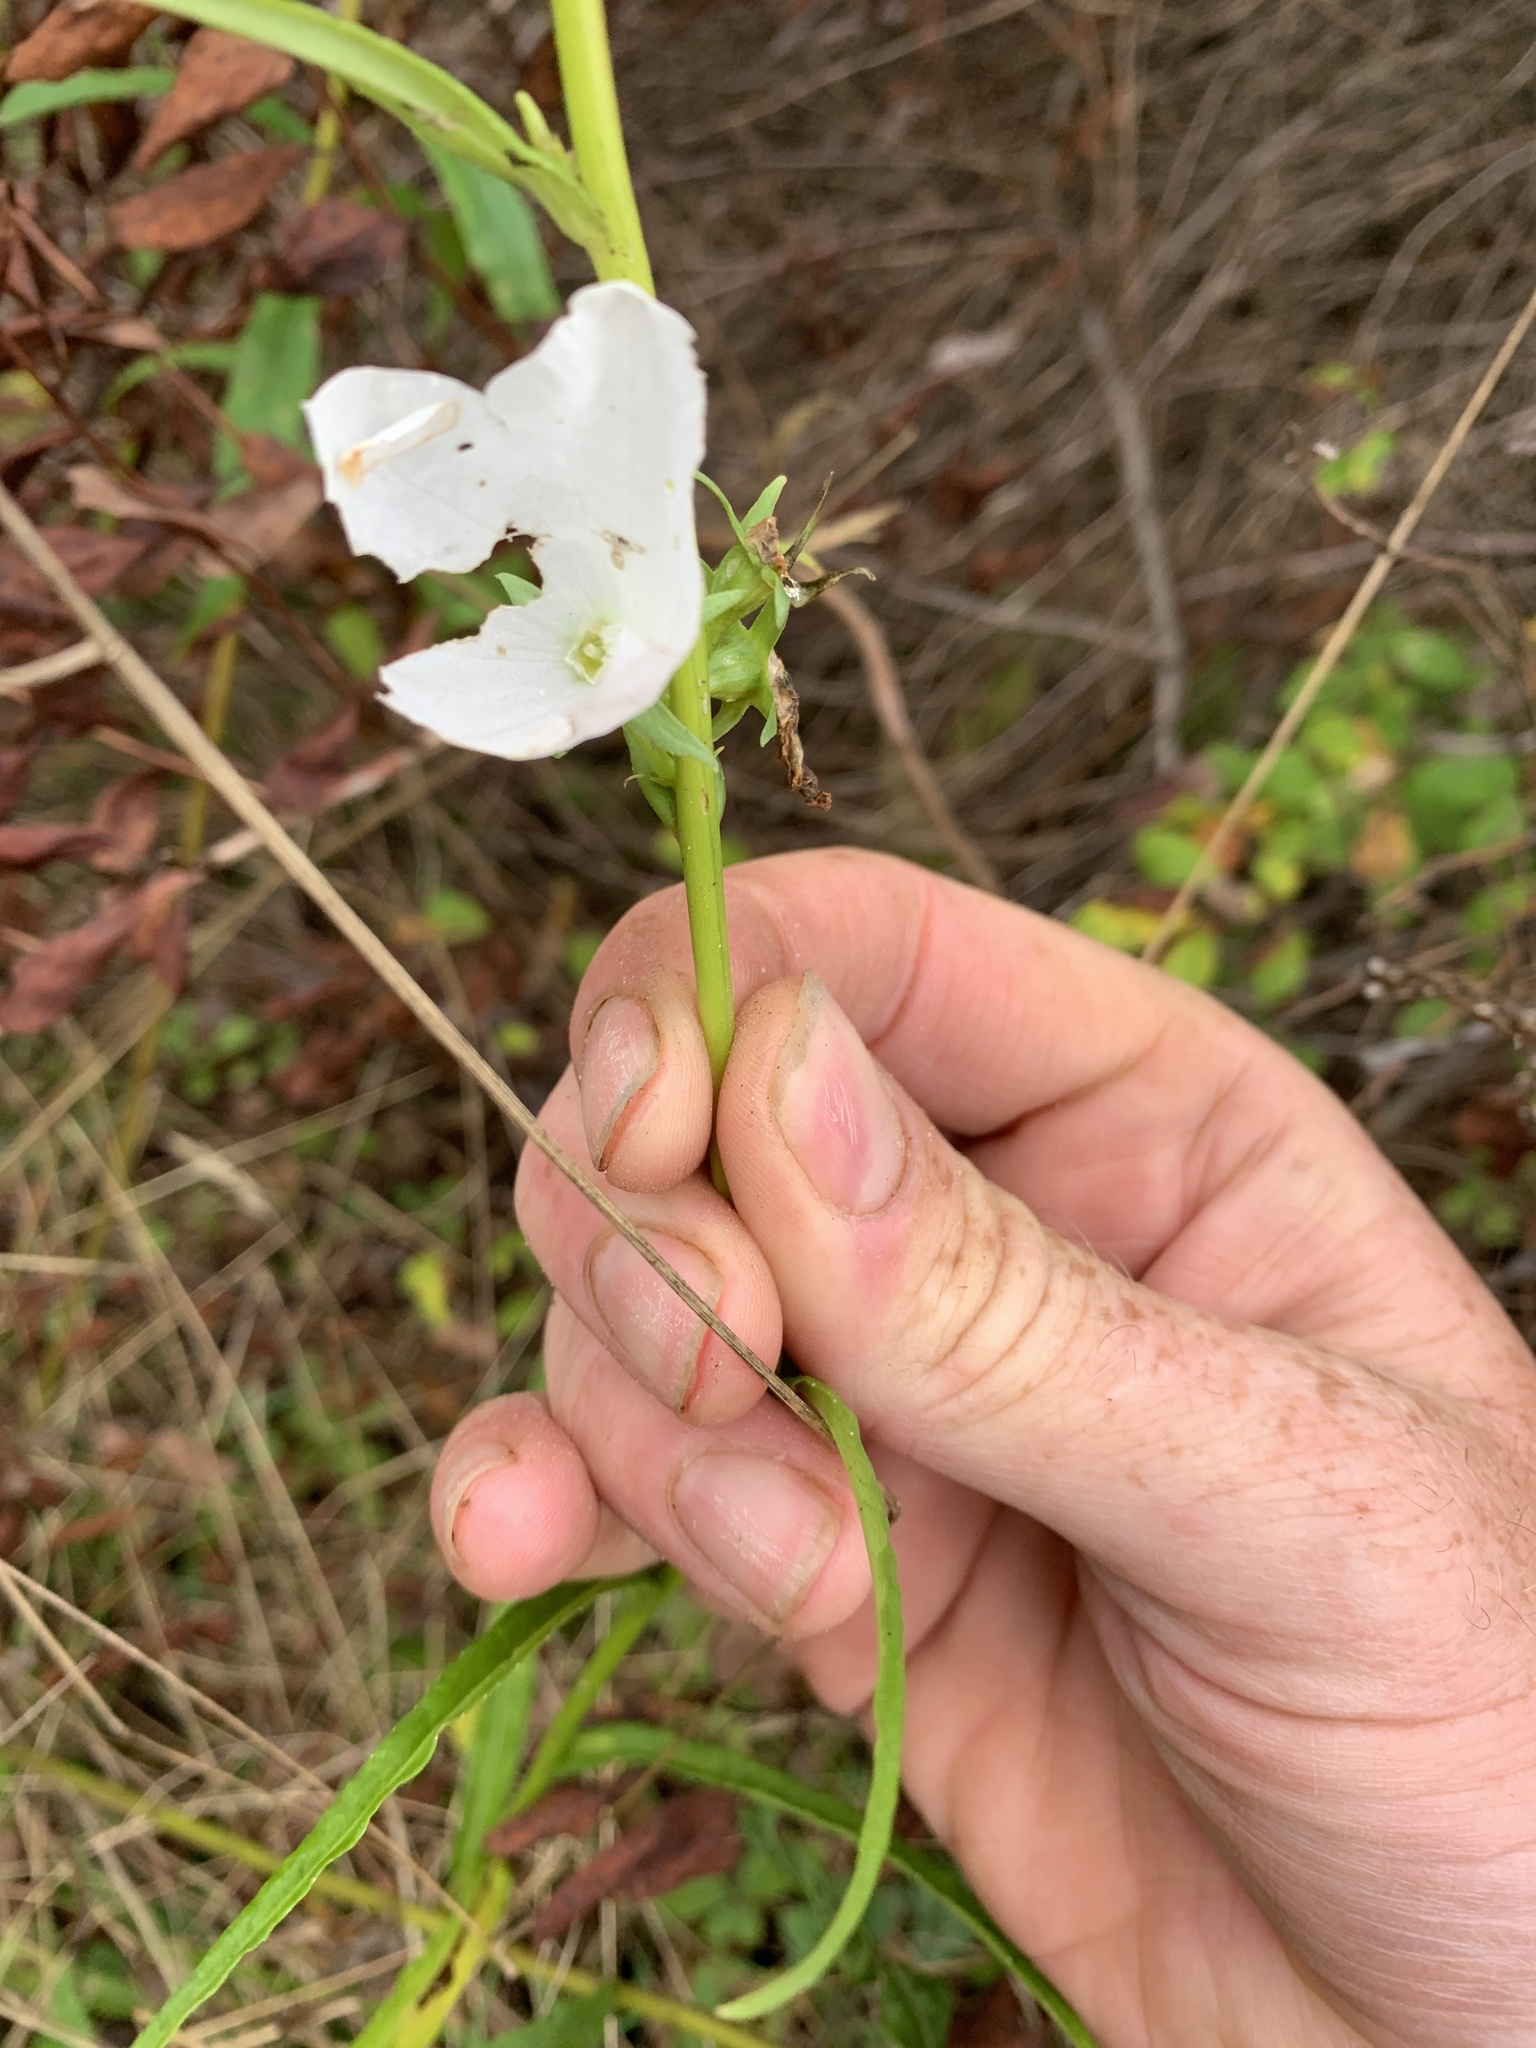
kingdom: Plantae
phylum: Tracheophyta
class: Magnoliopsida
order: Asterales
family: Campanulaceae
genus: Campanula
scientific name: Campanula persicifolia
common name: Peach-leaved bellflower
